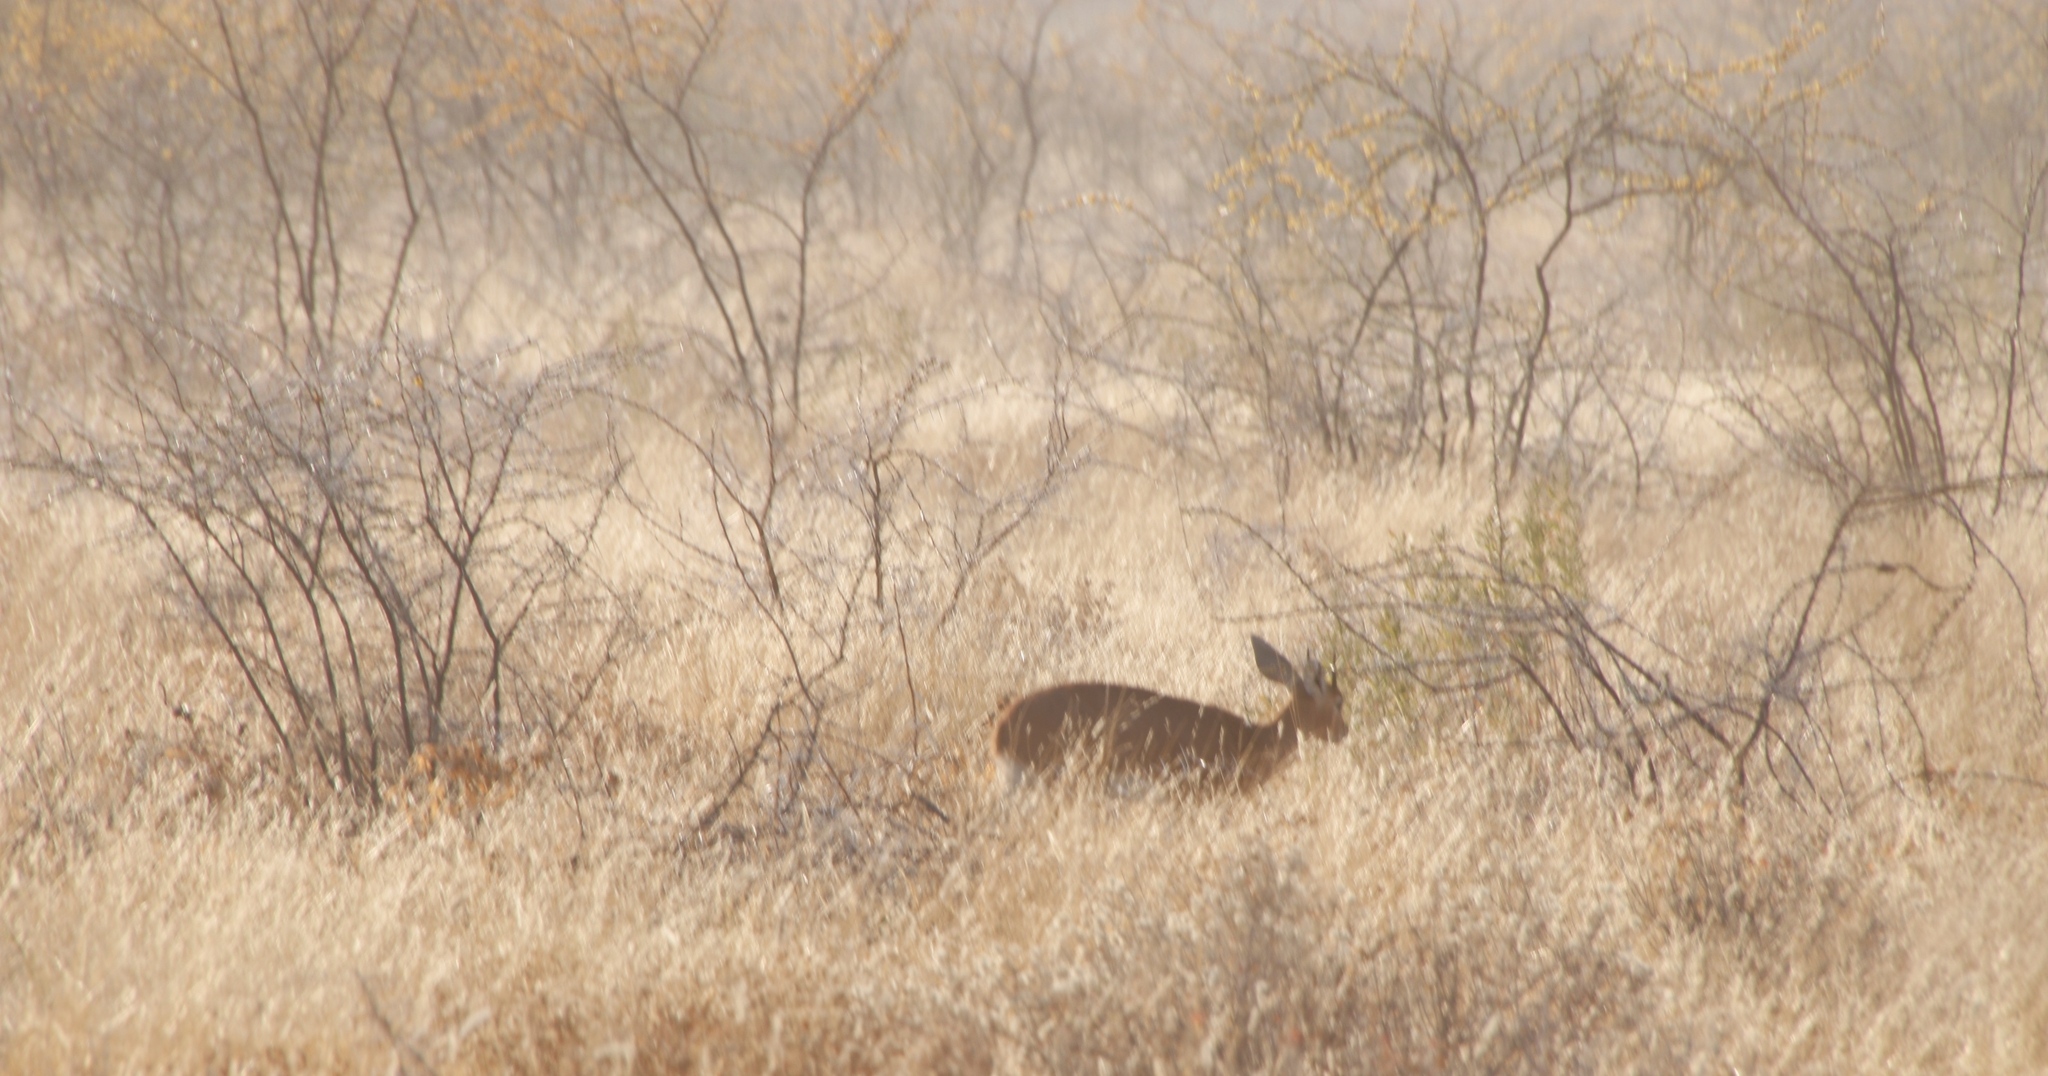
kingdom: Animalia
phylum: Chordata
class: Mammalia
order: Artiodactyla
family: Bovidae
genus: Raphicerus
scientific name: Raphicerus campestris
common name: Steenbok
